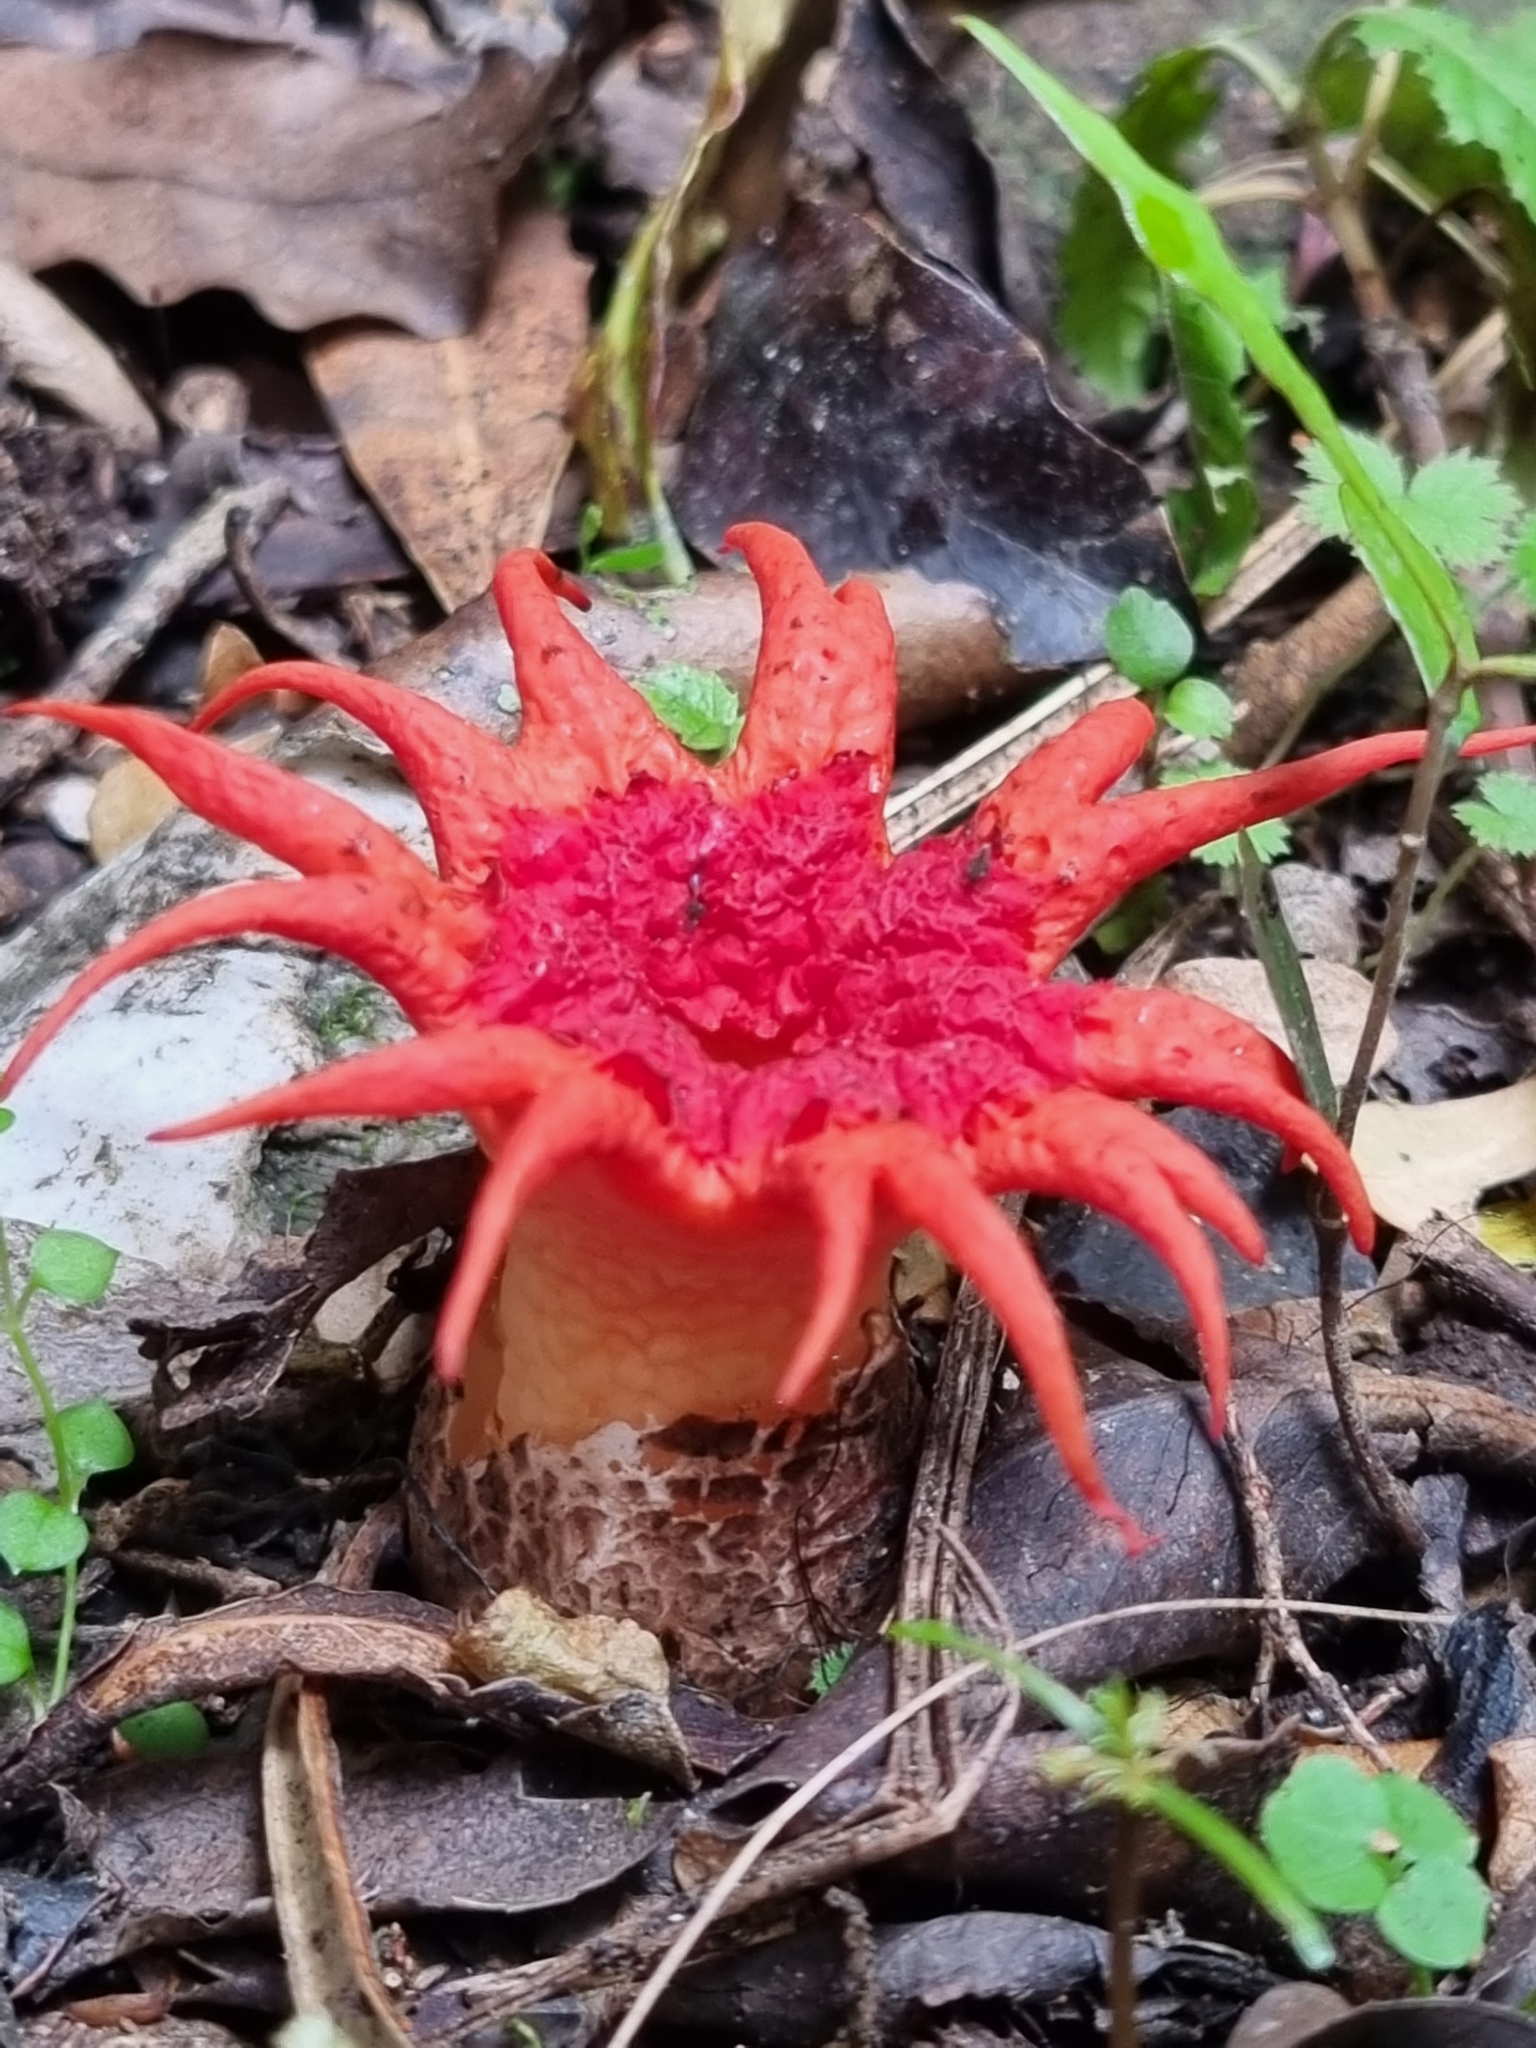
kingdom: Fungi
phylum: Basidiomycota
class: Agaricomycetes
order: Phallales
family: Phallaceae
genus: Aseroe
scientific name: Aseroe rubra
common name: Starfish fungus
